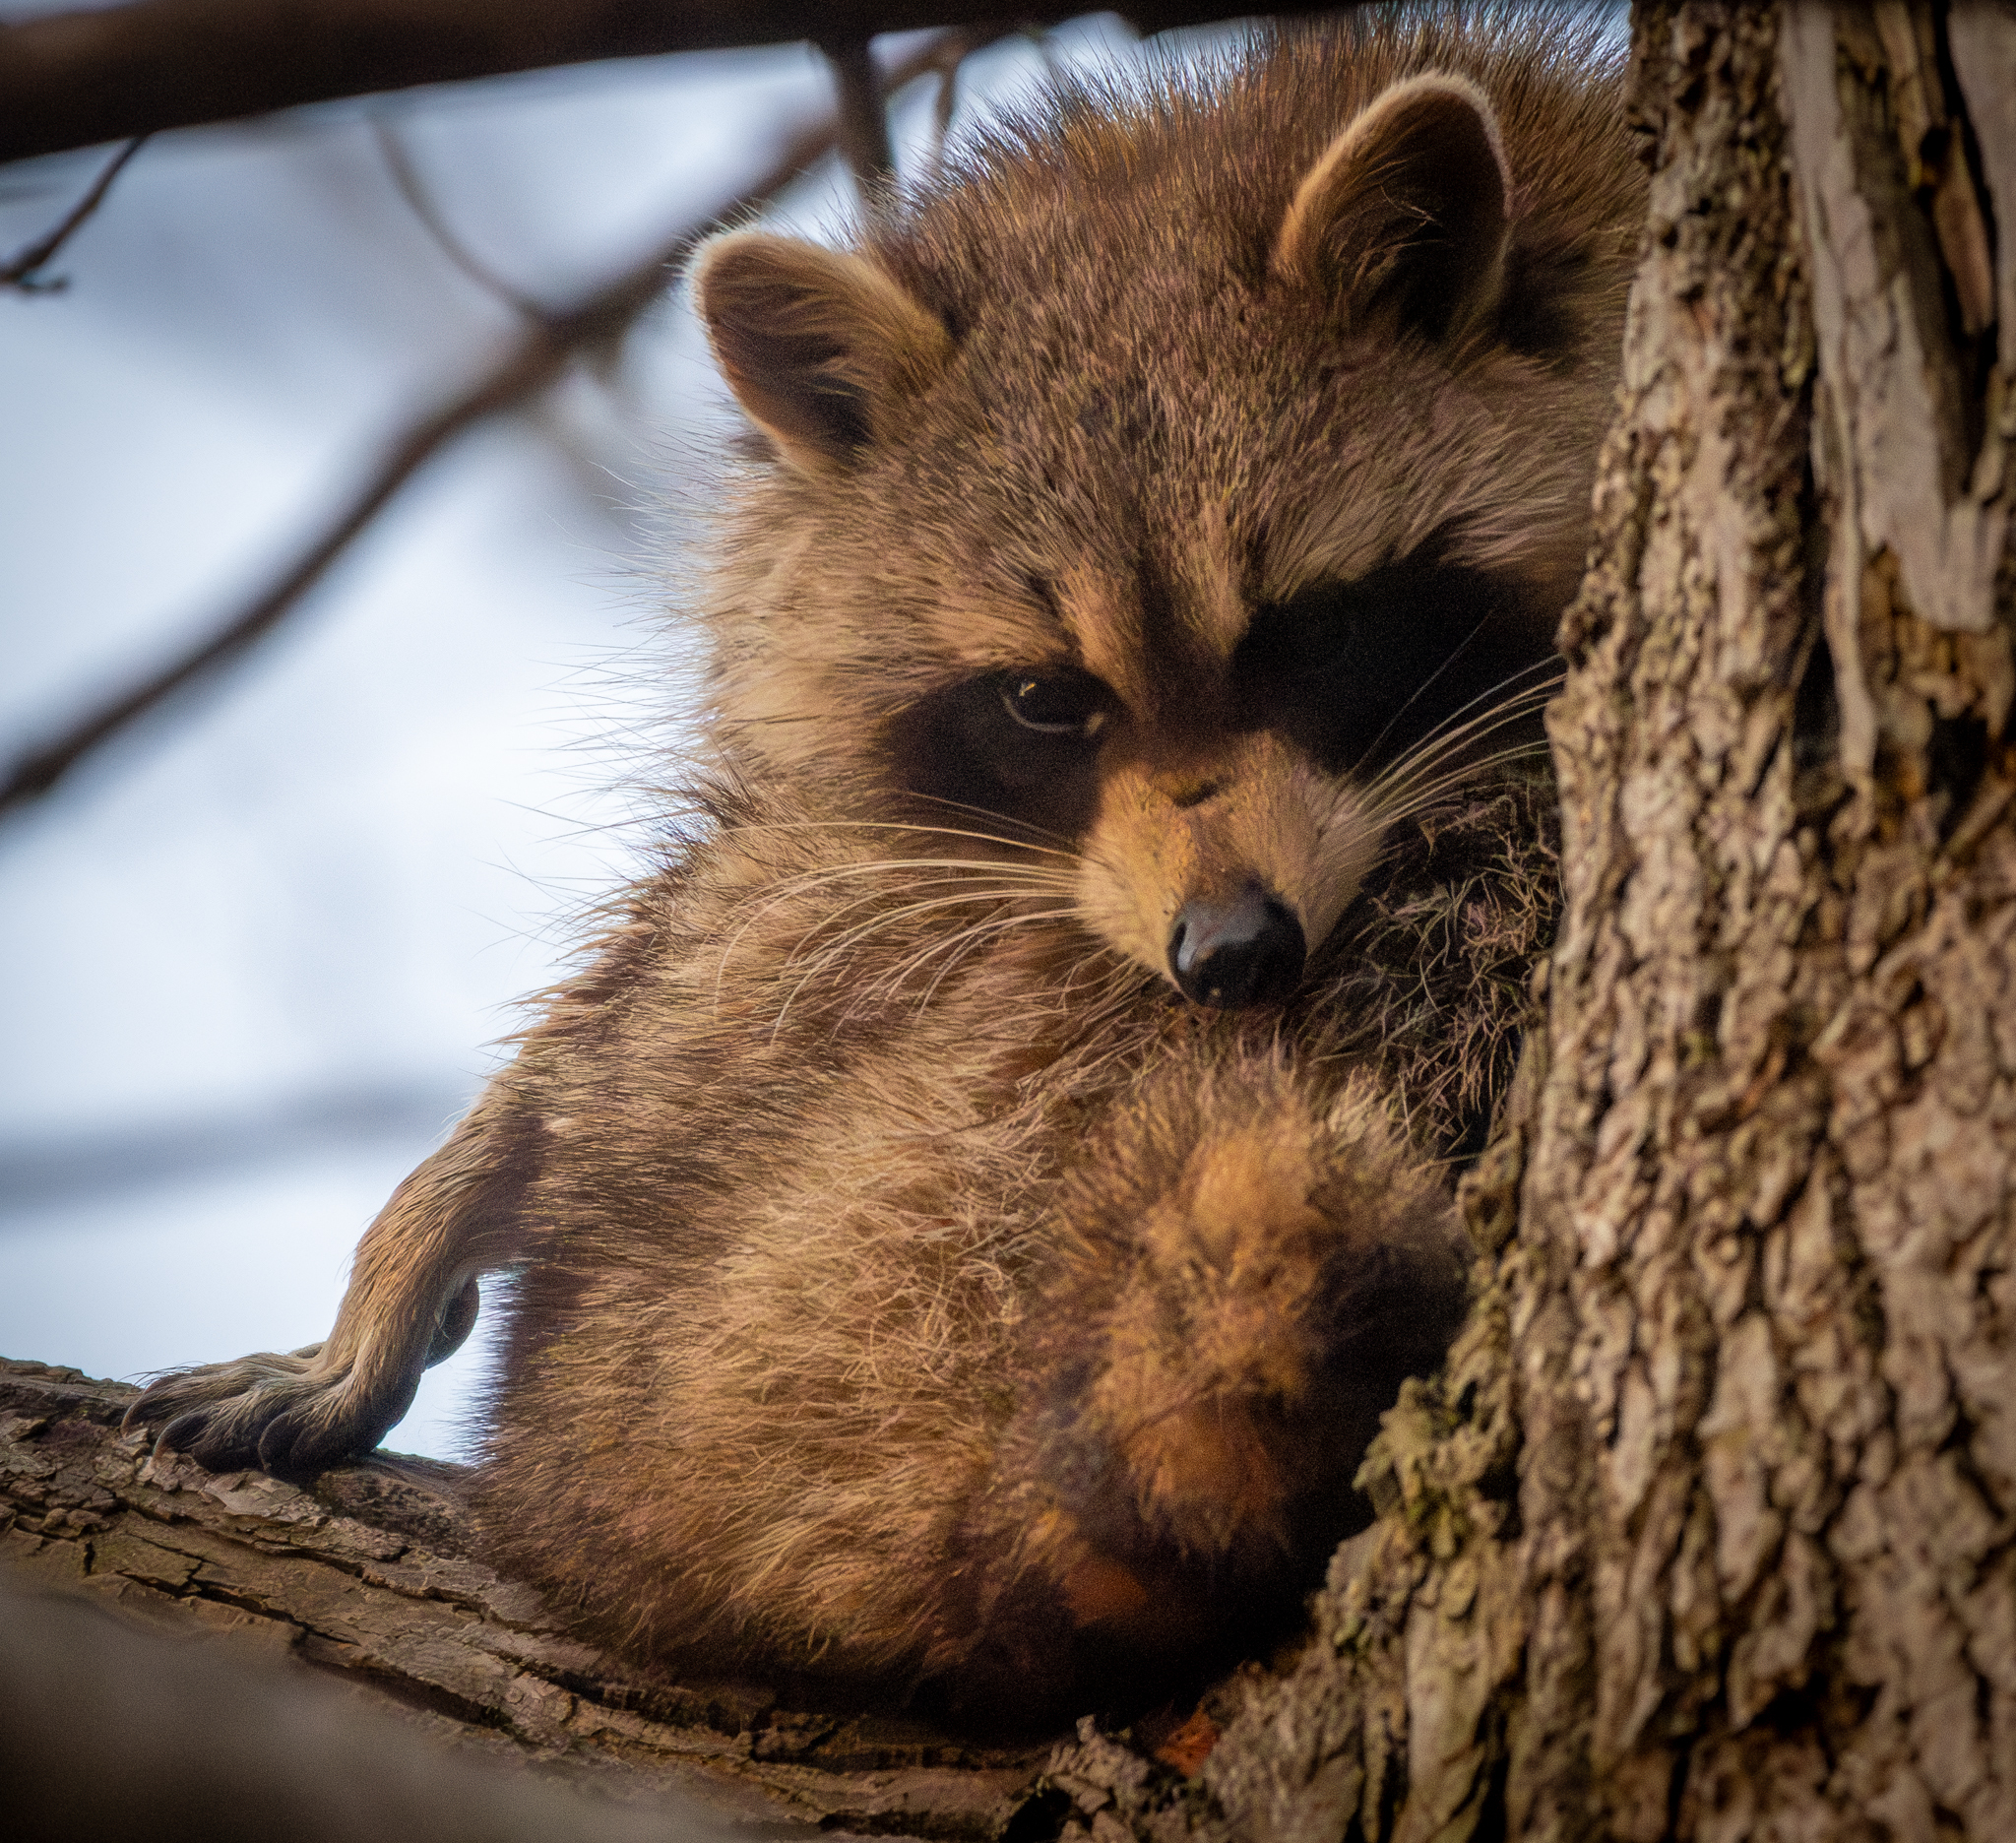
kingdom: Animalia
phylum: Chordata
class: Mammalia
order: Carnivora
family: Procyonidae
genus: Procyon
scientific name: Procyon lotor
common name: Raccoon
